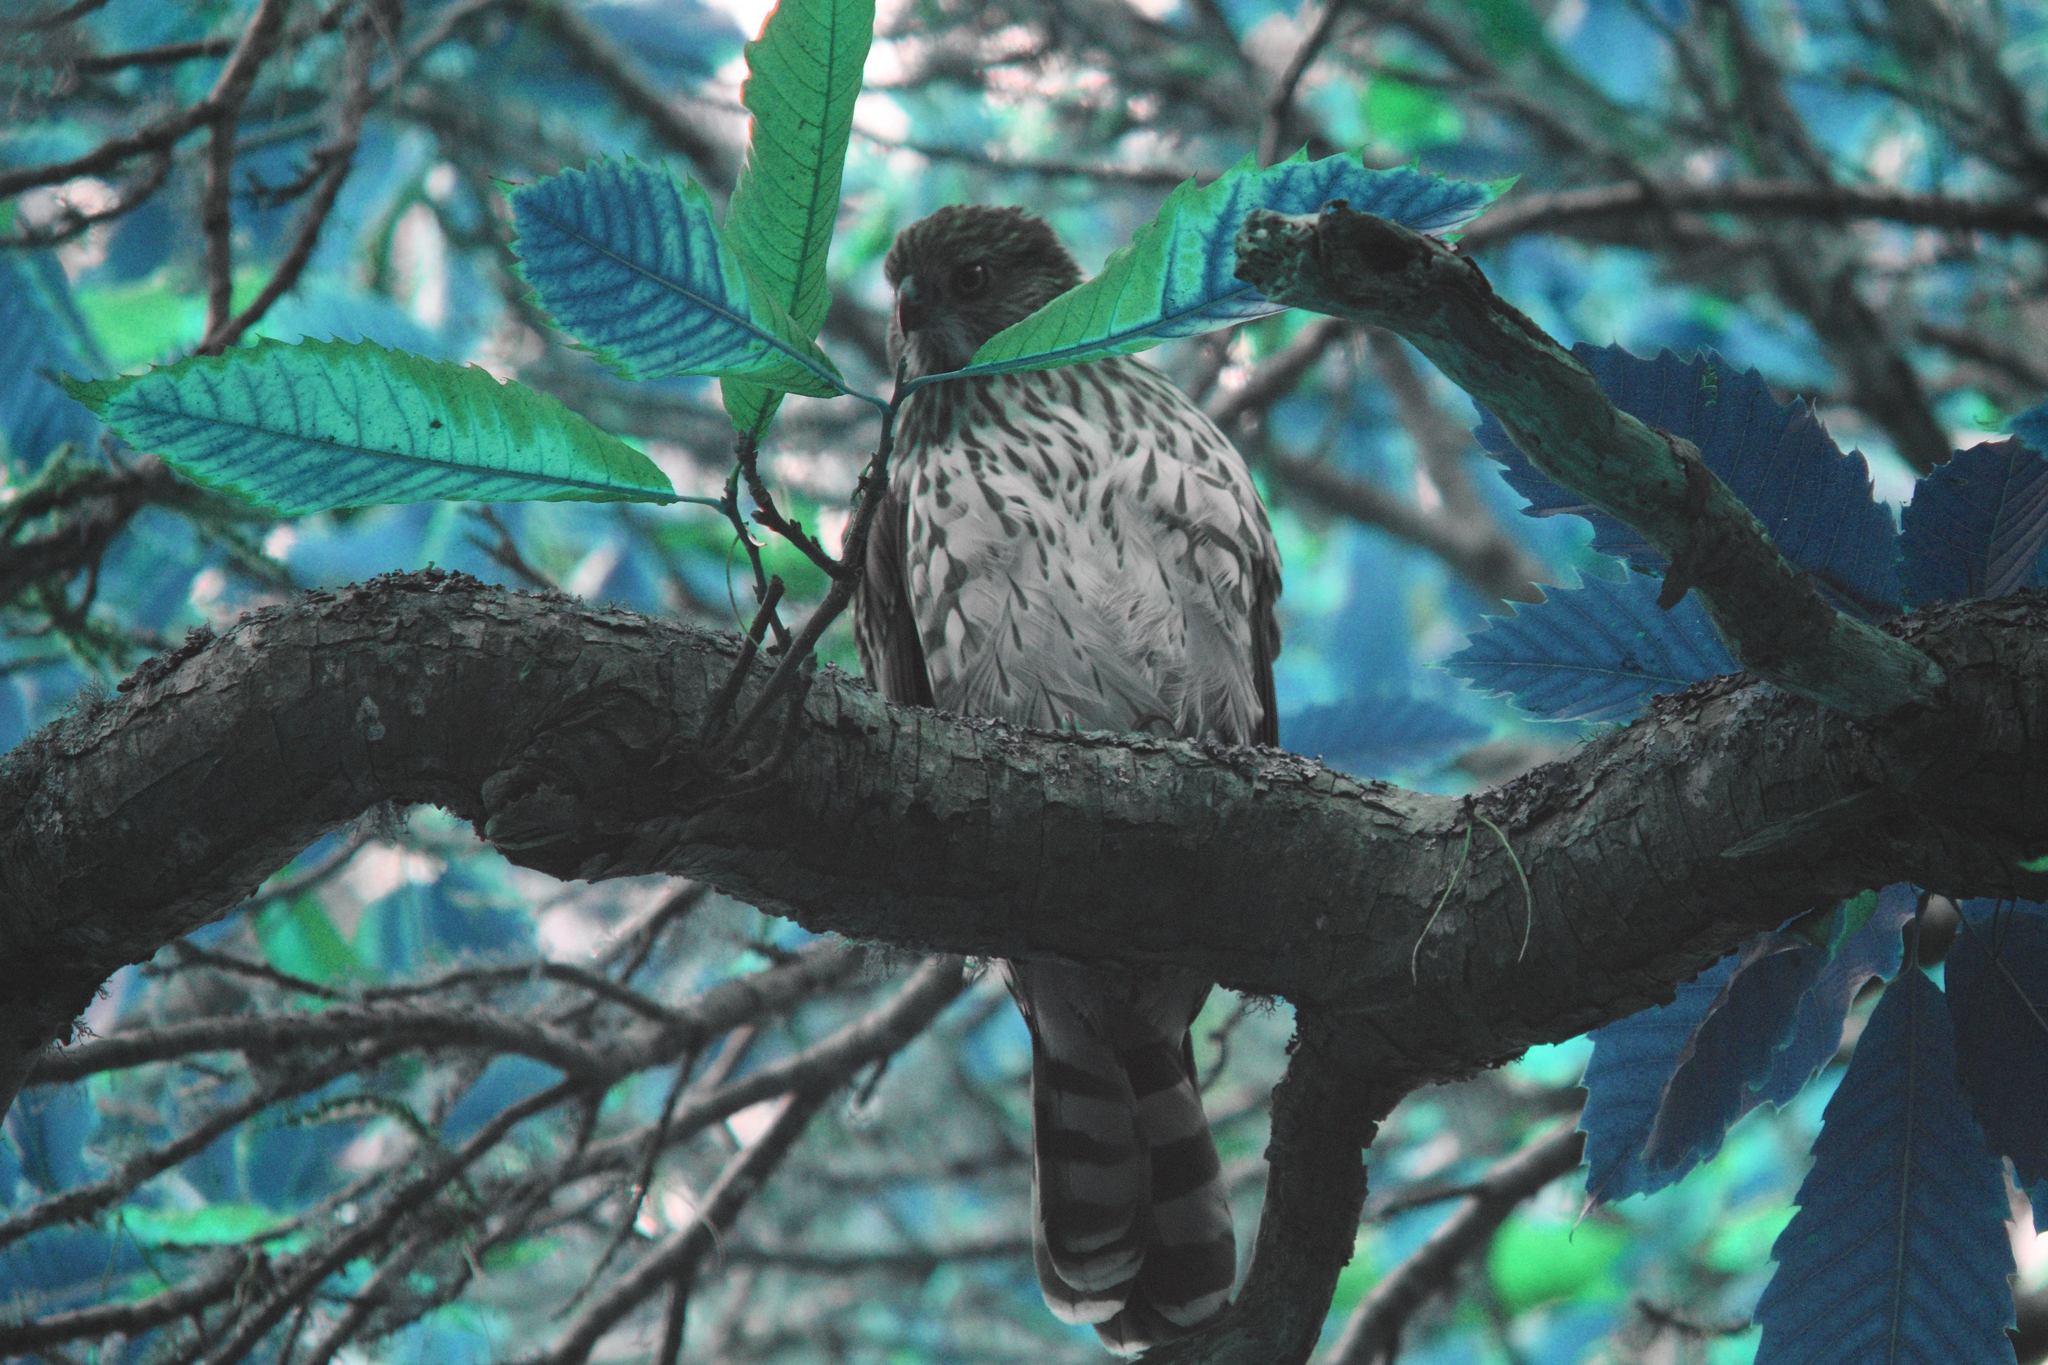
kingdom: Animalia
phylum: Chordata
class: Aves
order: Accipitriformes
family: Accipitridae
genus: Accipiter
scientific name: Accipiter cooperii
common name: Cooper's hawk
